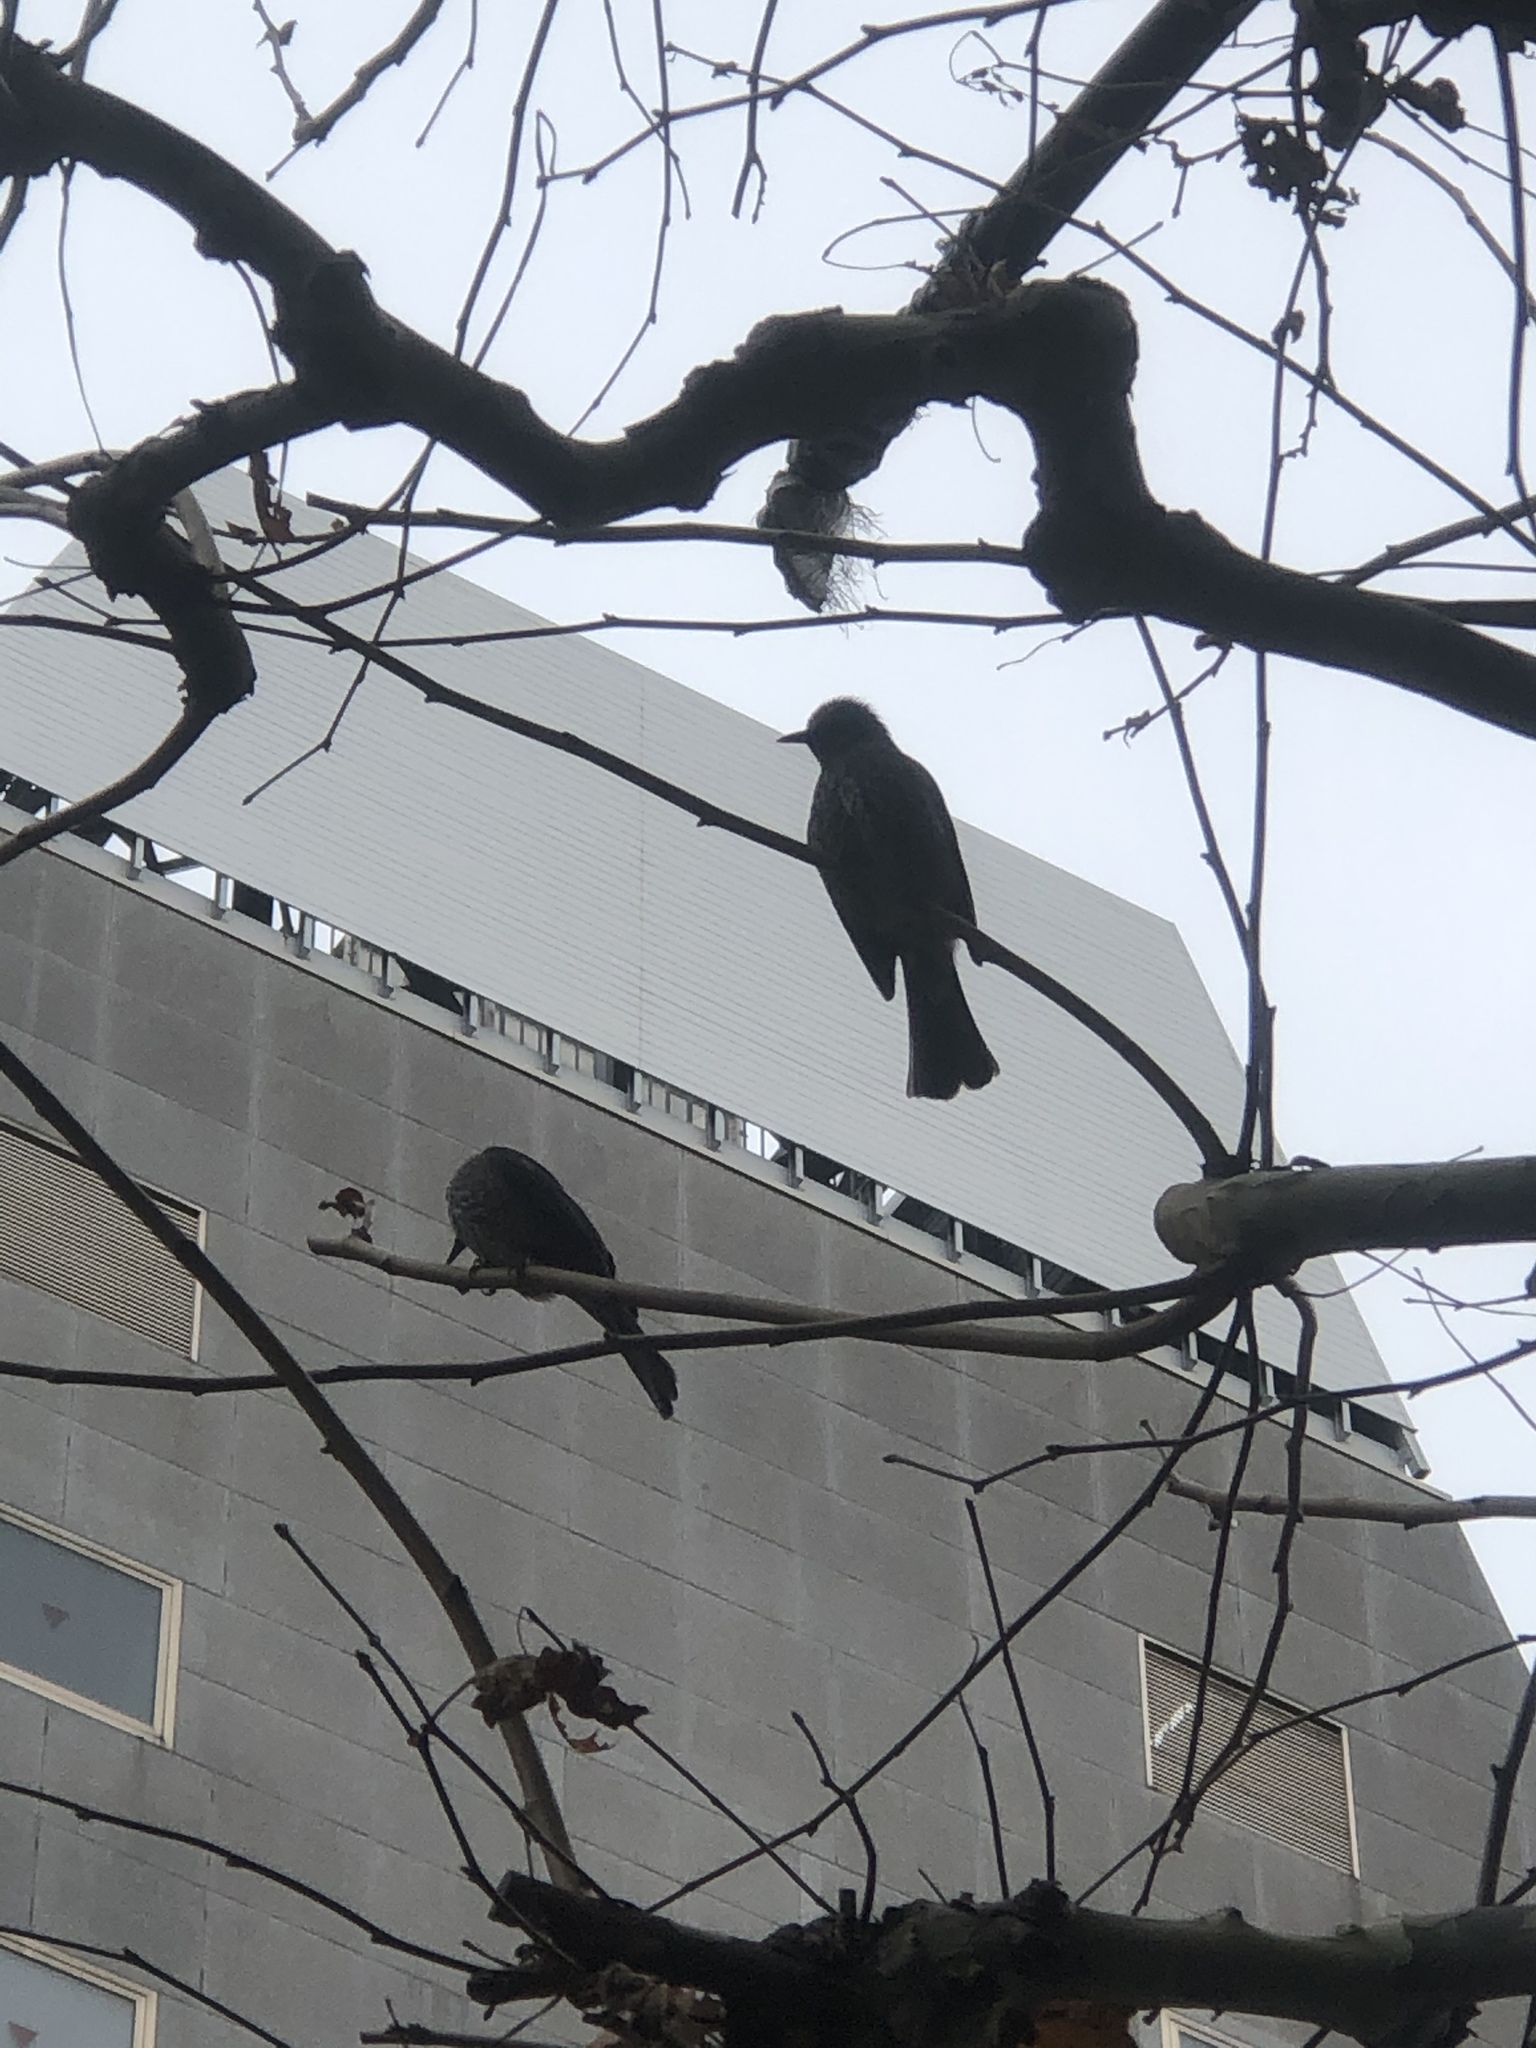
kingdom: Animalia
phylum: Chordata
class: Aves
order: Passeriformes
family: Pycnonotidae
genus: Hypsipetes
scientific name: Hypsipetes amaurotis
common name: Brown-eared bulbul
